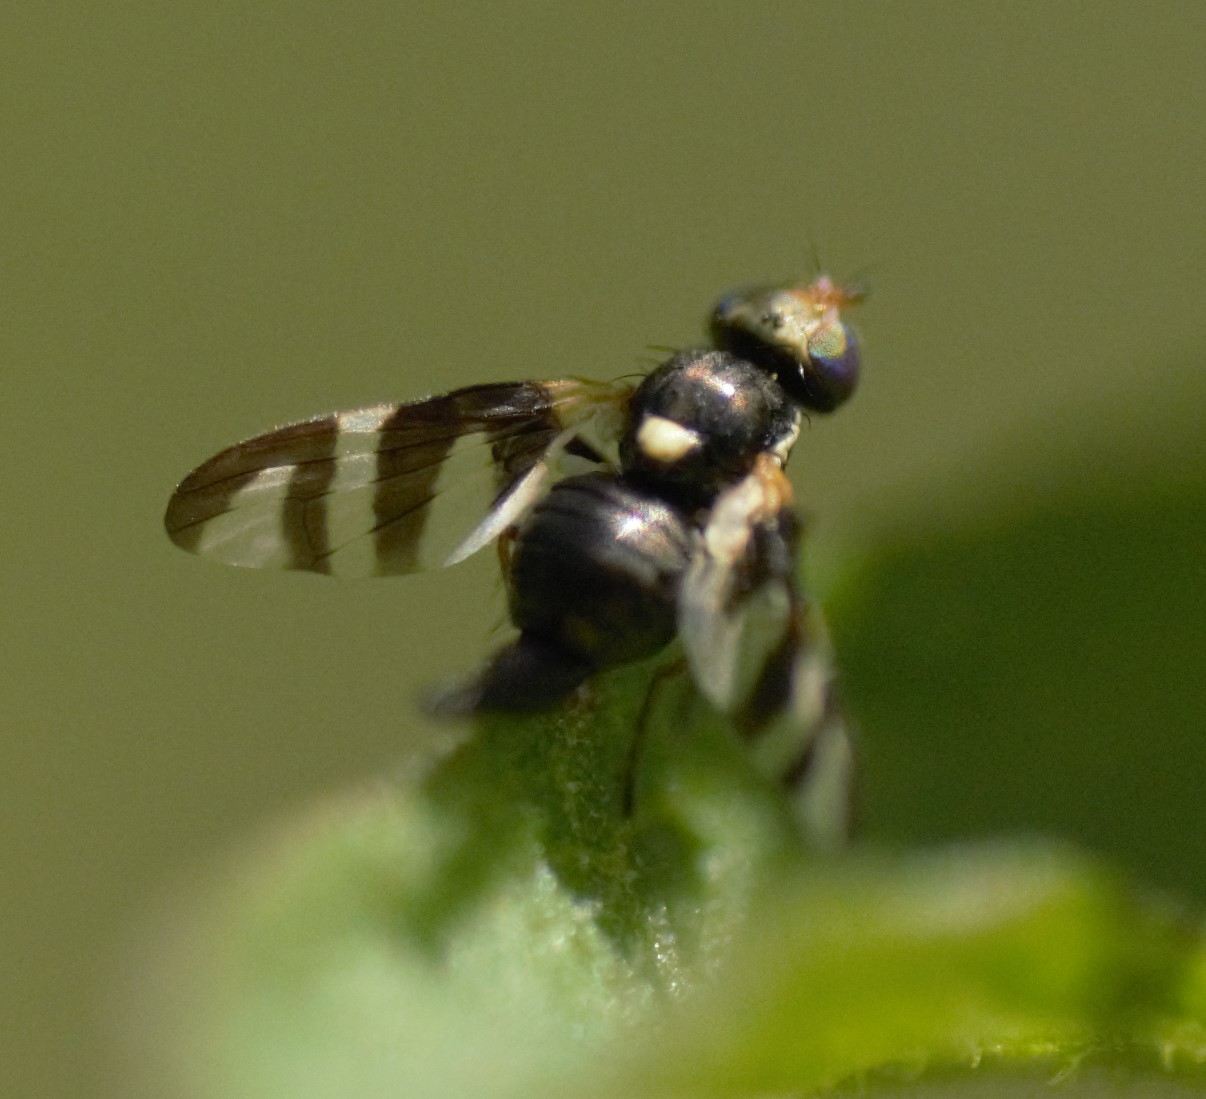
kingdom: Animalia
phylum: Arthropoda
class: Insecta
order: Diptera
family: Tephritidae
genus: Urophora
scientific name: Urophora quadrifasciata
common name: Knapweed seedhead fly
